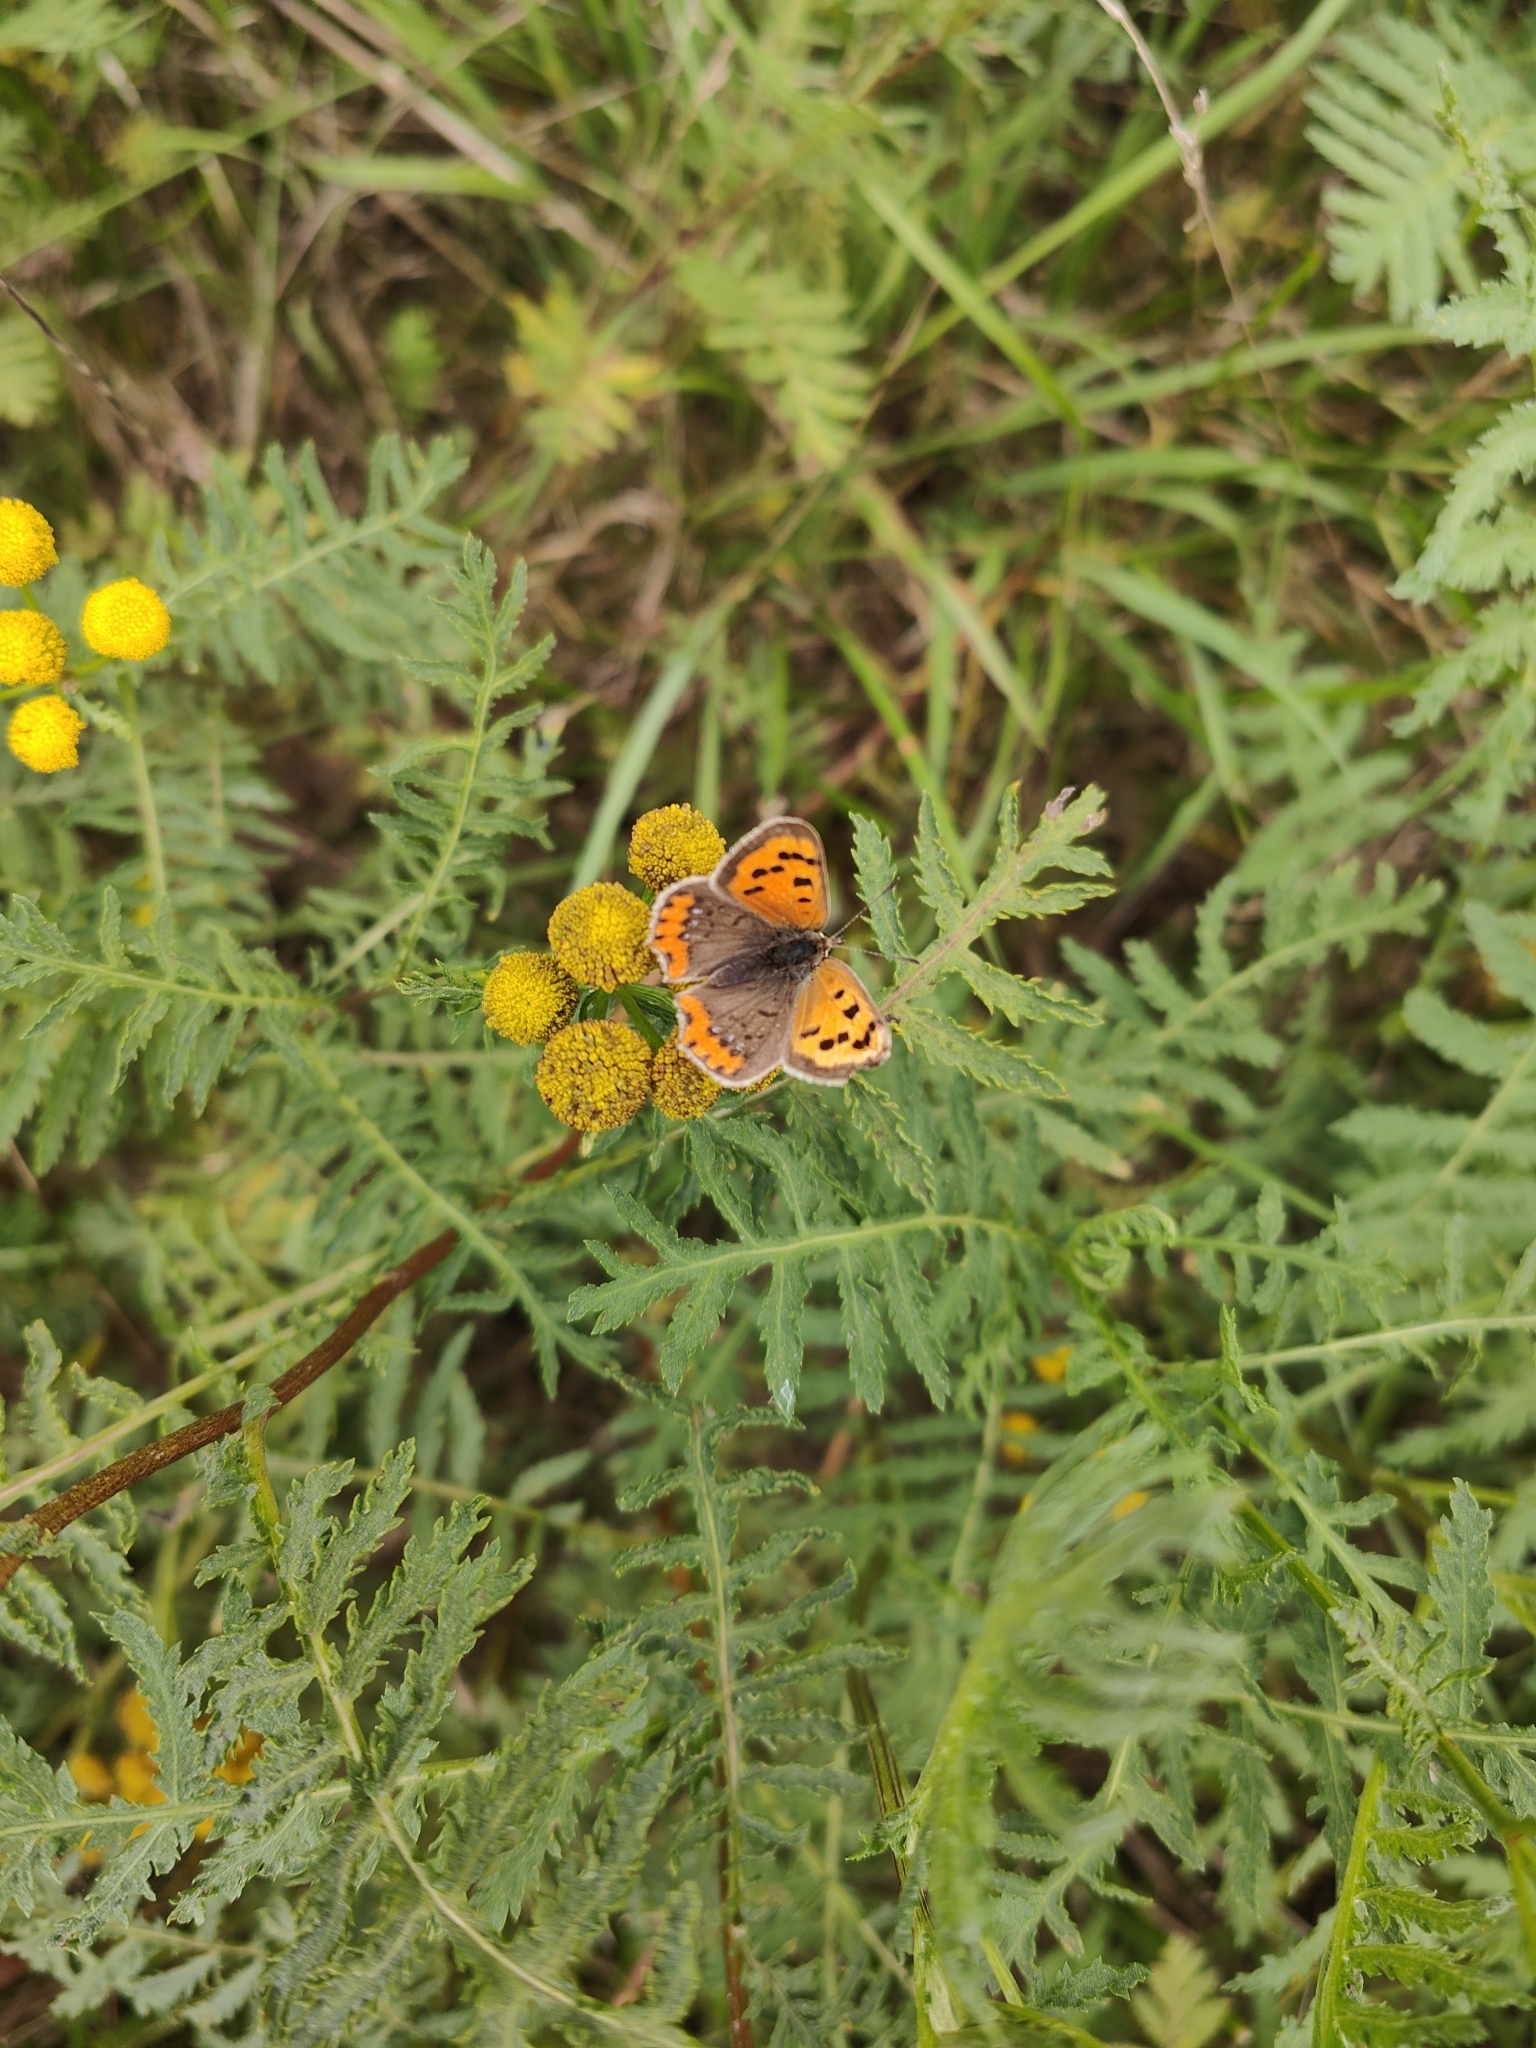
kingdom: Animalia
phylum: Arthropoda
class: Insecta
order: Lepidoptera
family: Lycaenidae
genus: Lycaena
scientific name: Lycaena phlaeas
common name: Small copper
